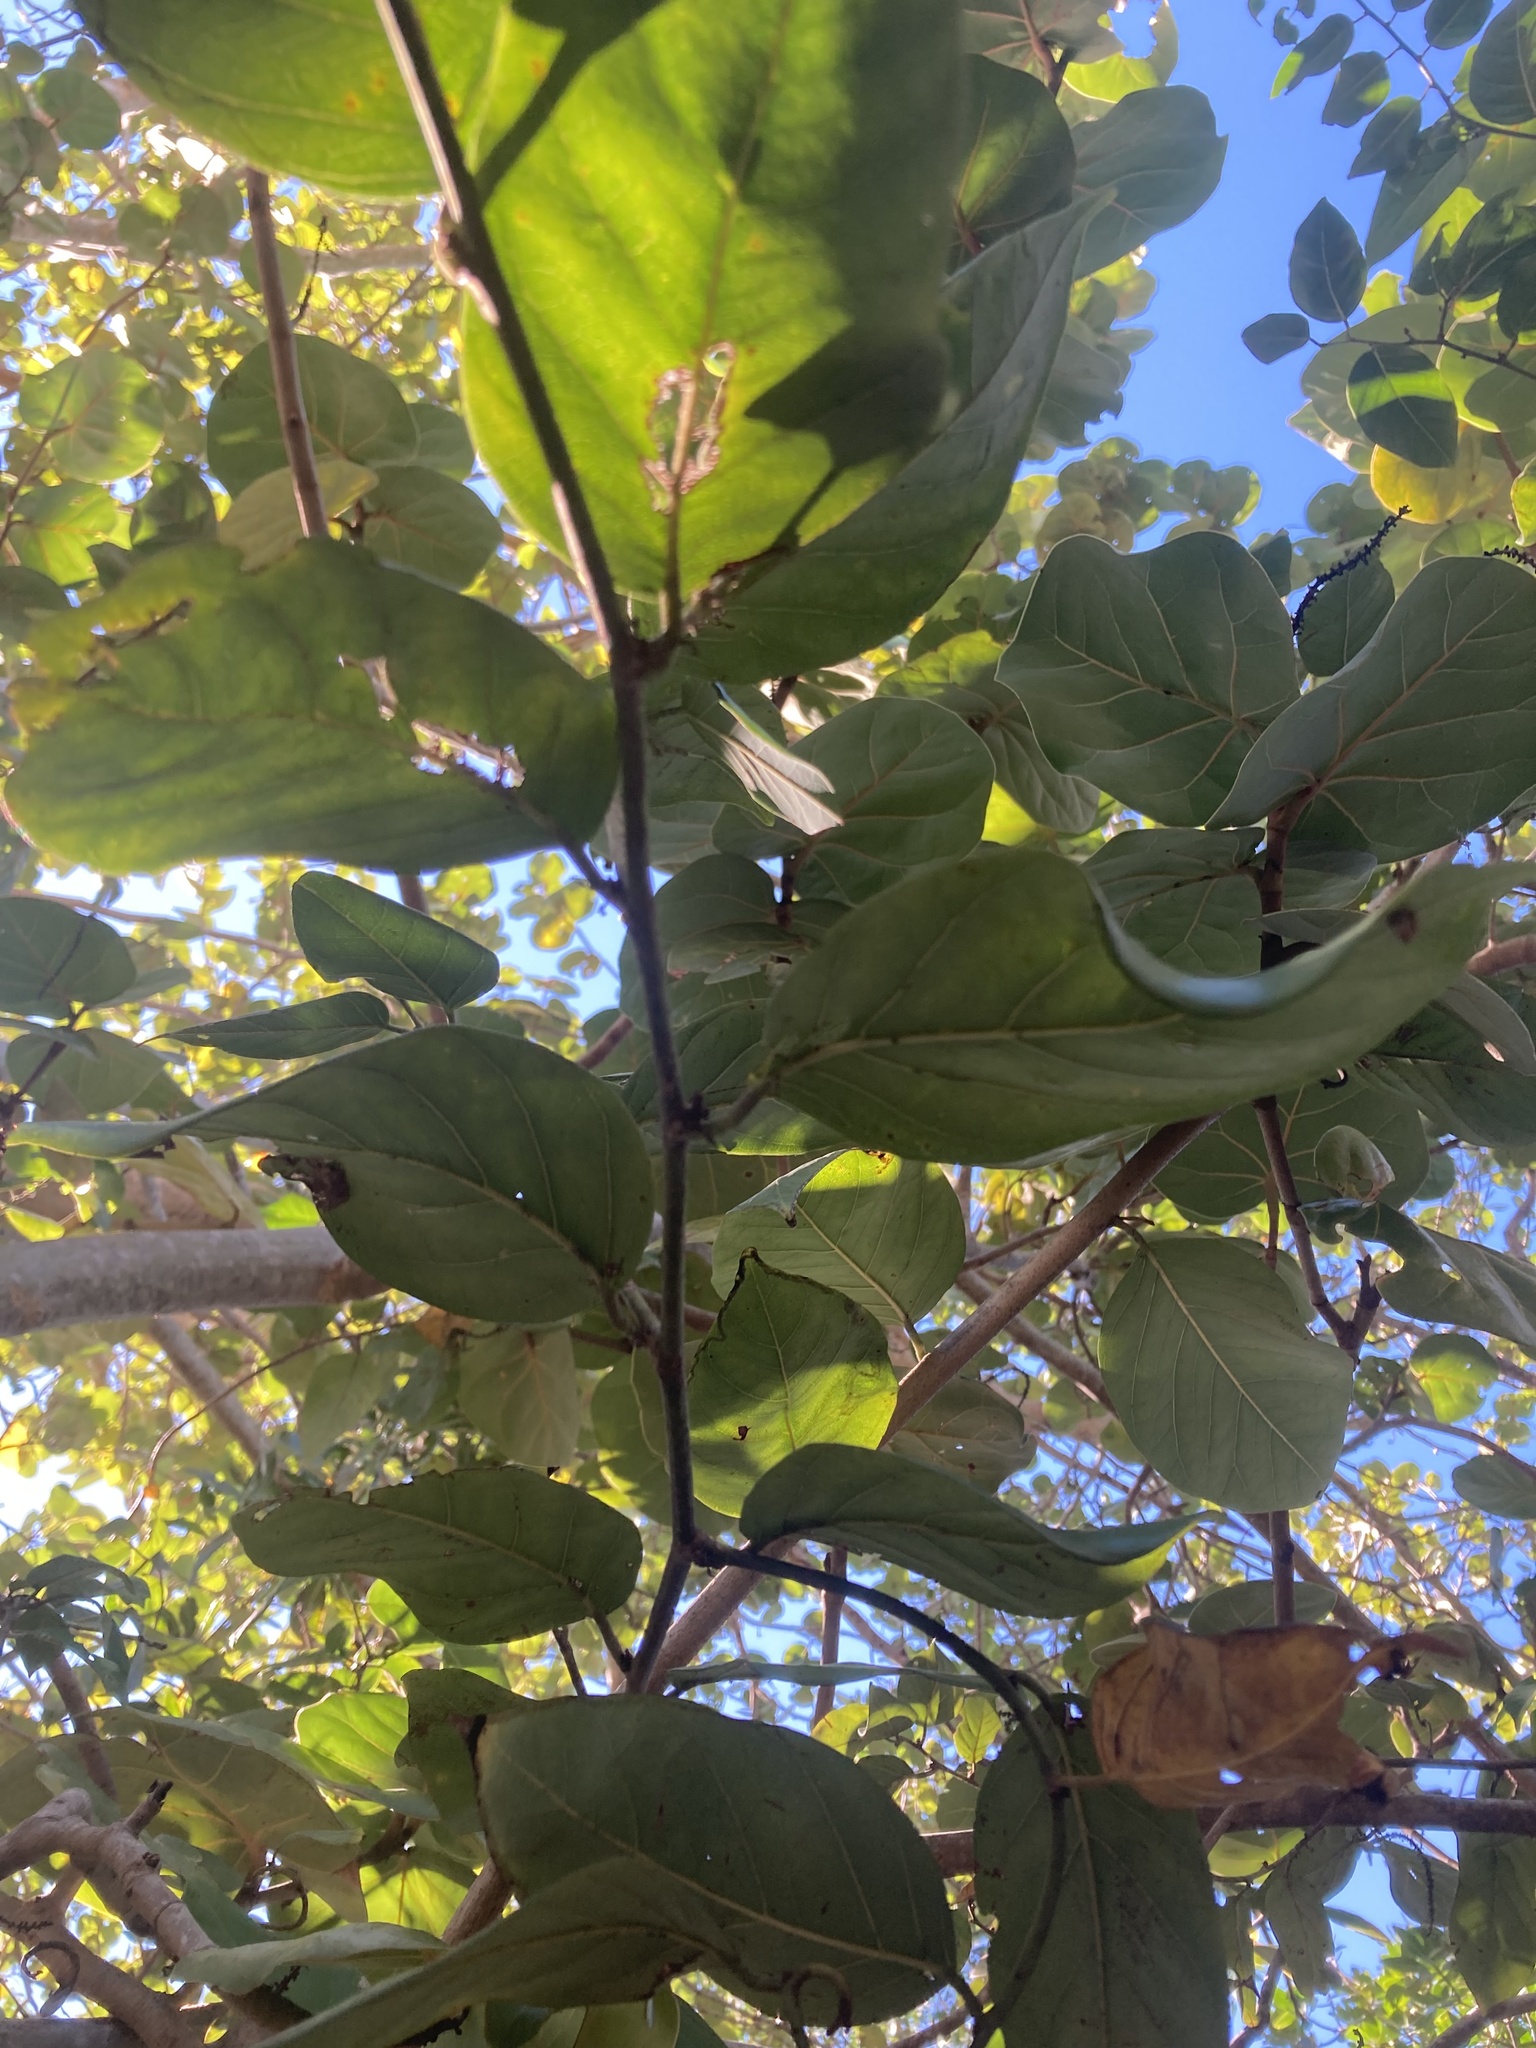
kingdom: Plantae
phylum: Tracheophyta
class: Magnoliopsida
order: Fabales
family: Fabaceae
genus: Dalbergia
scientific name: Dalbergia ecastaphyllum
